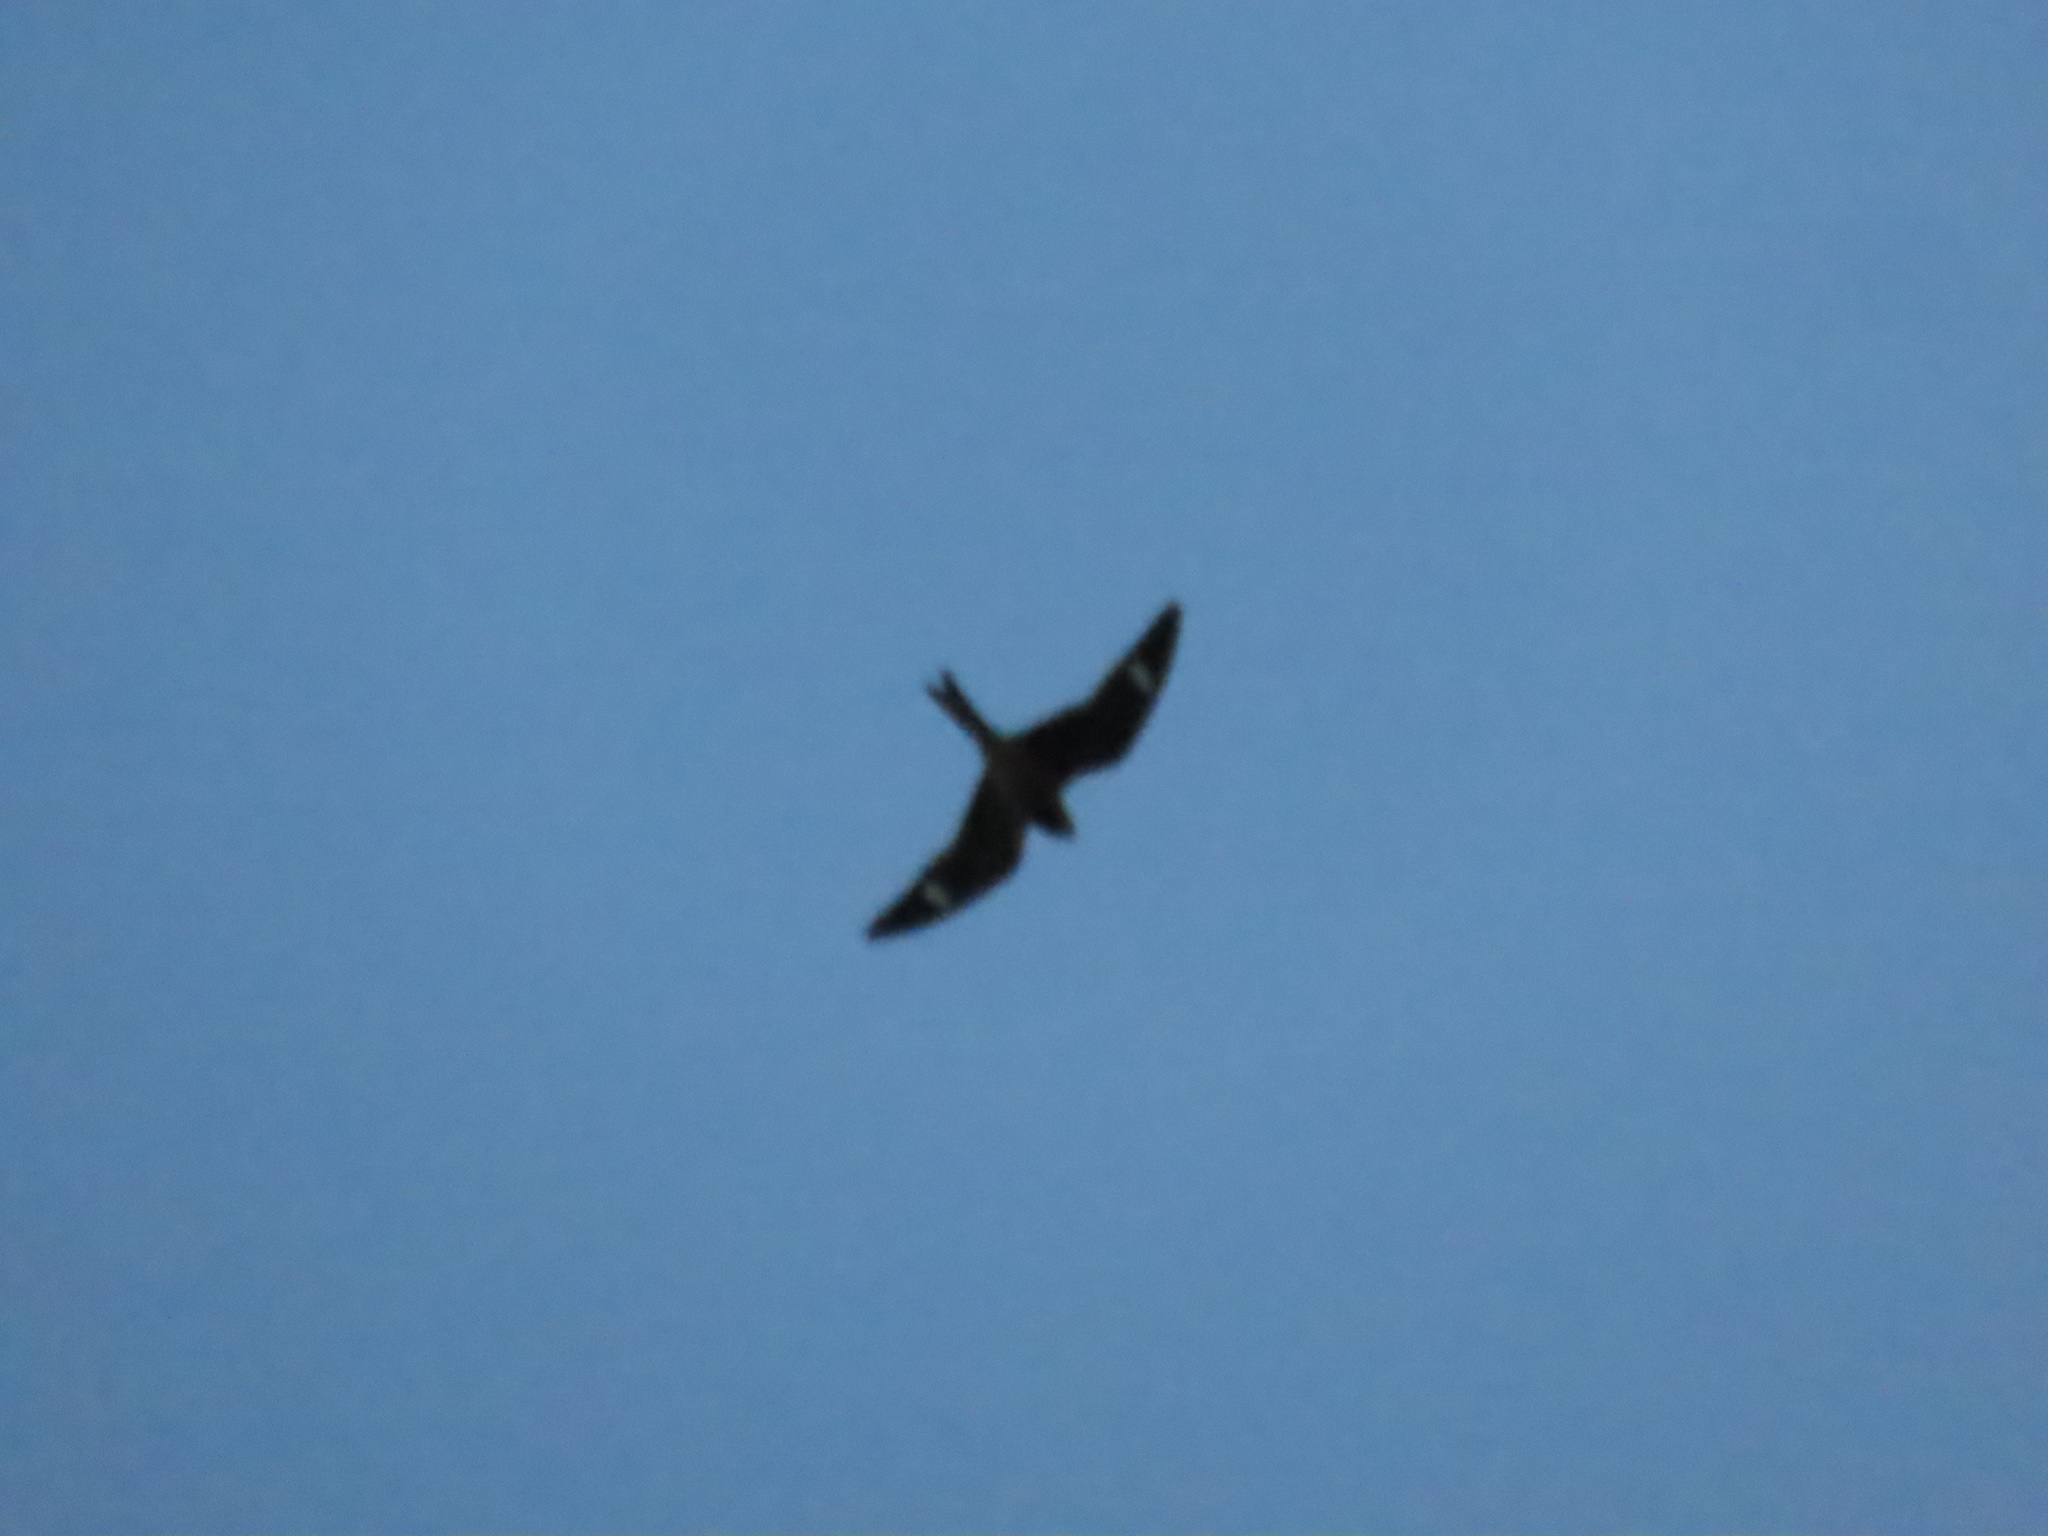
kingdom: Animalia
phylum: Chordata
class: Aves
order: Caprimulgiformes
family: Caprimulgidae
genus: Chordeiles
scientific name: Chordeiles minor
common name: Common nighthawk
